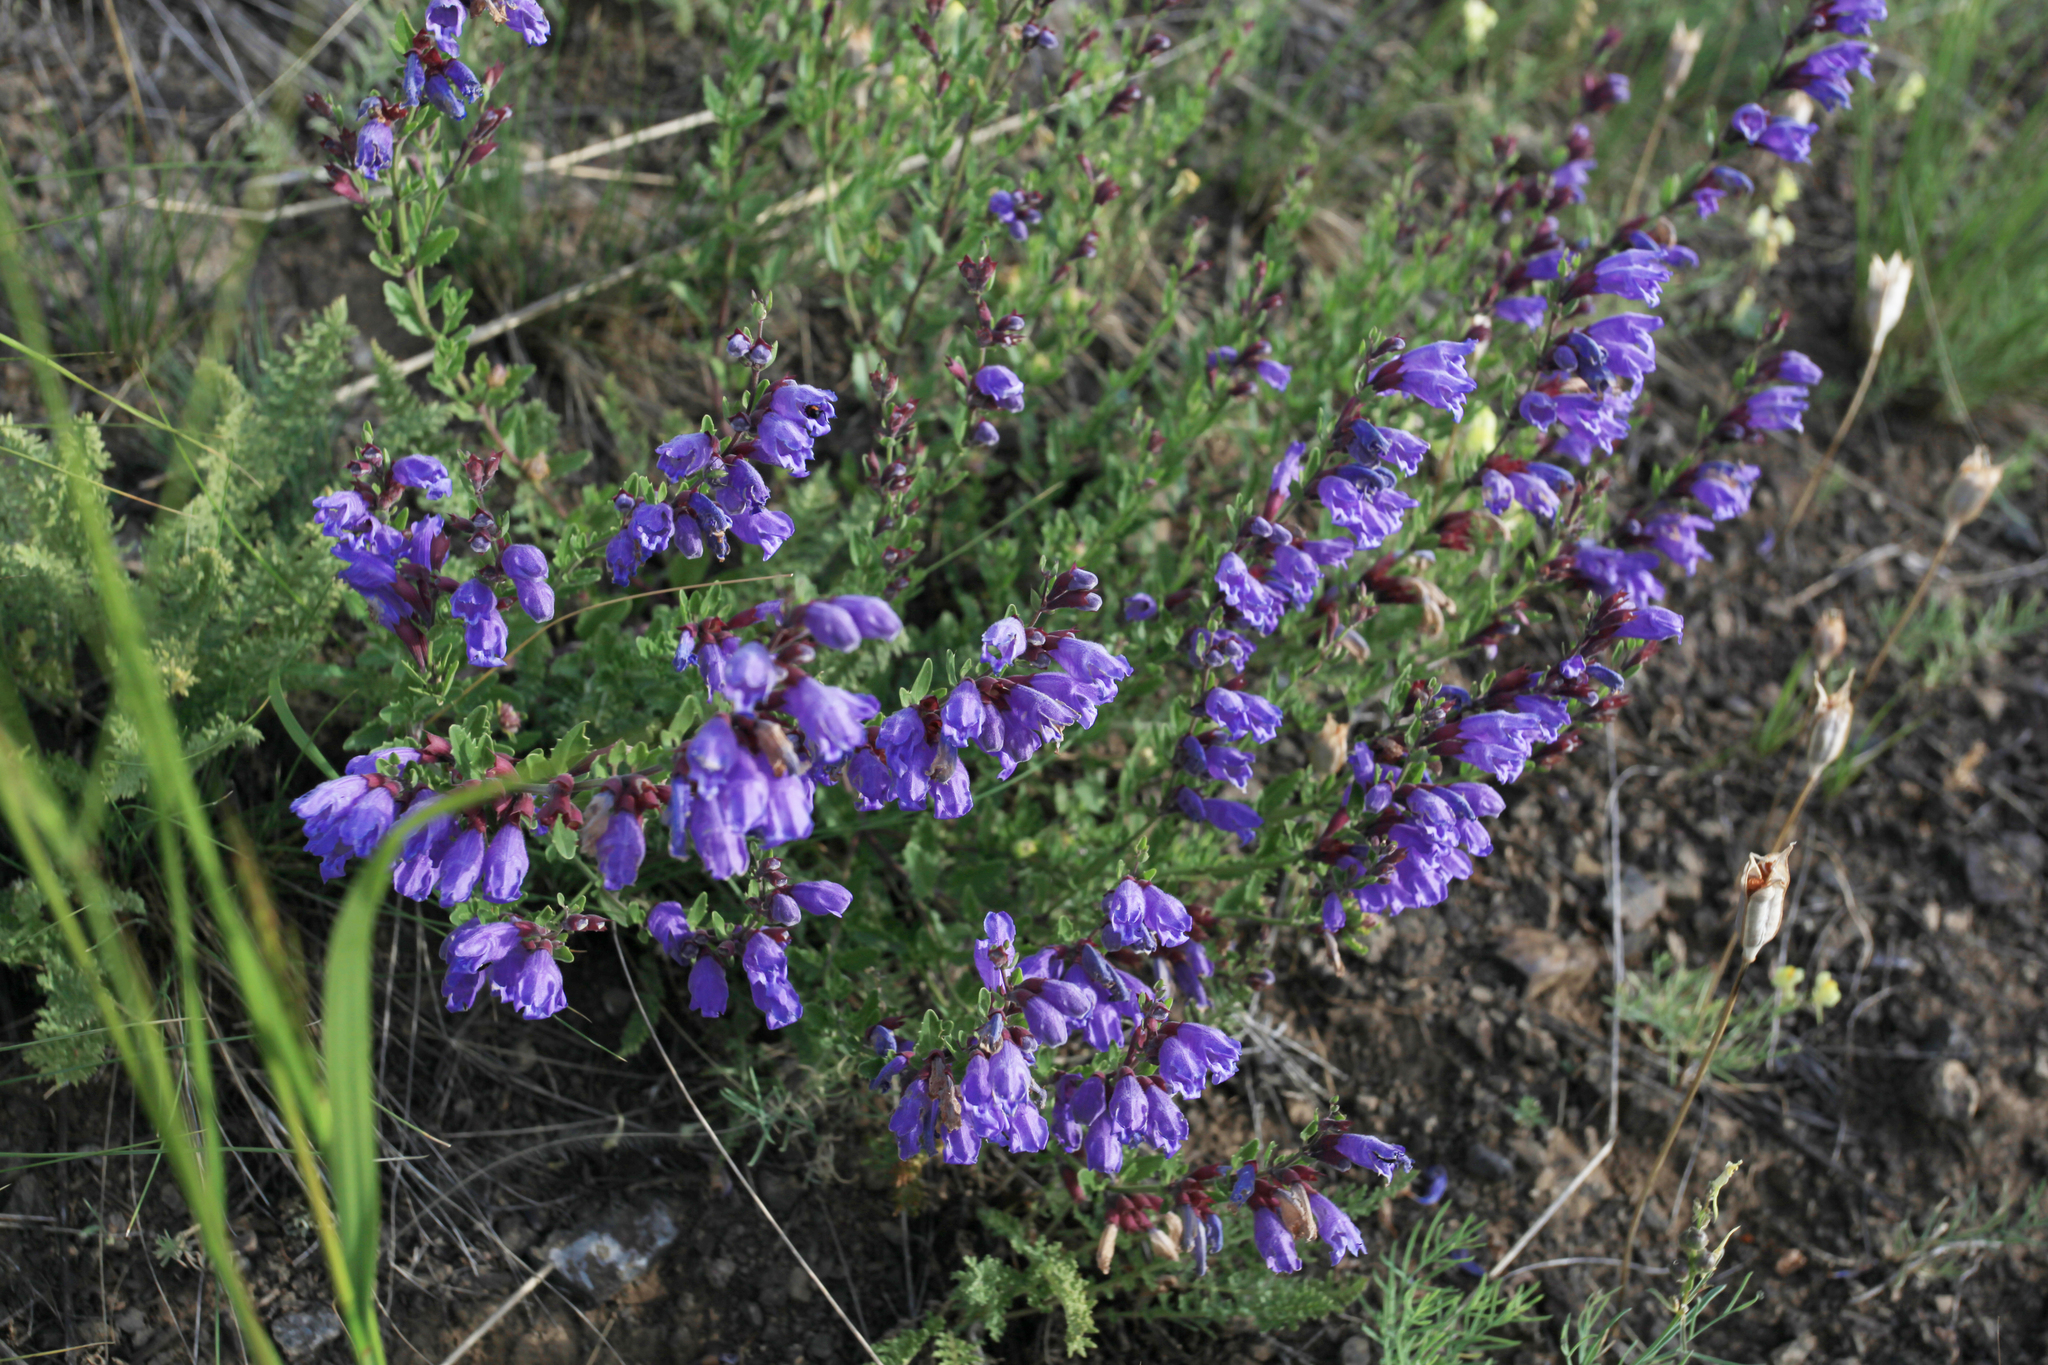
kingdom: Plantae
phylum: Tracheophyta
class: Magnoliopsida
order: Lamiales
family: Lamiaceae
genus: Dracocephalum
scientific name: Dracocephalum peregrinum
